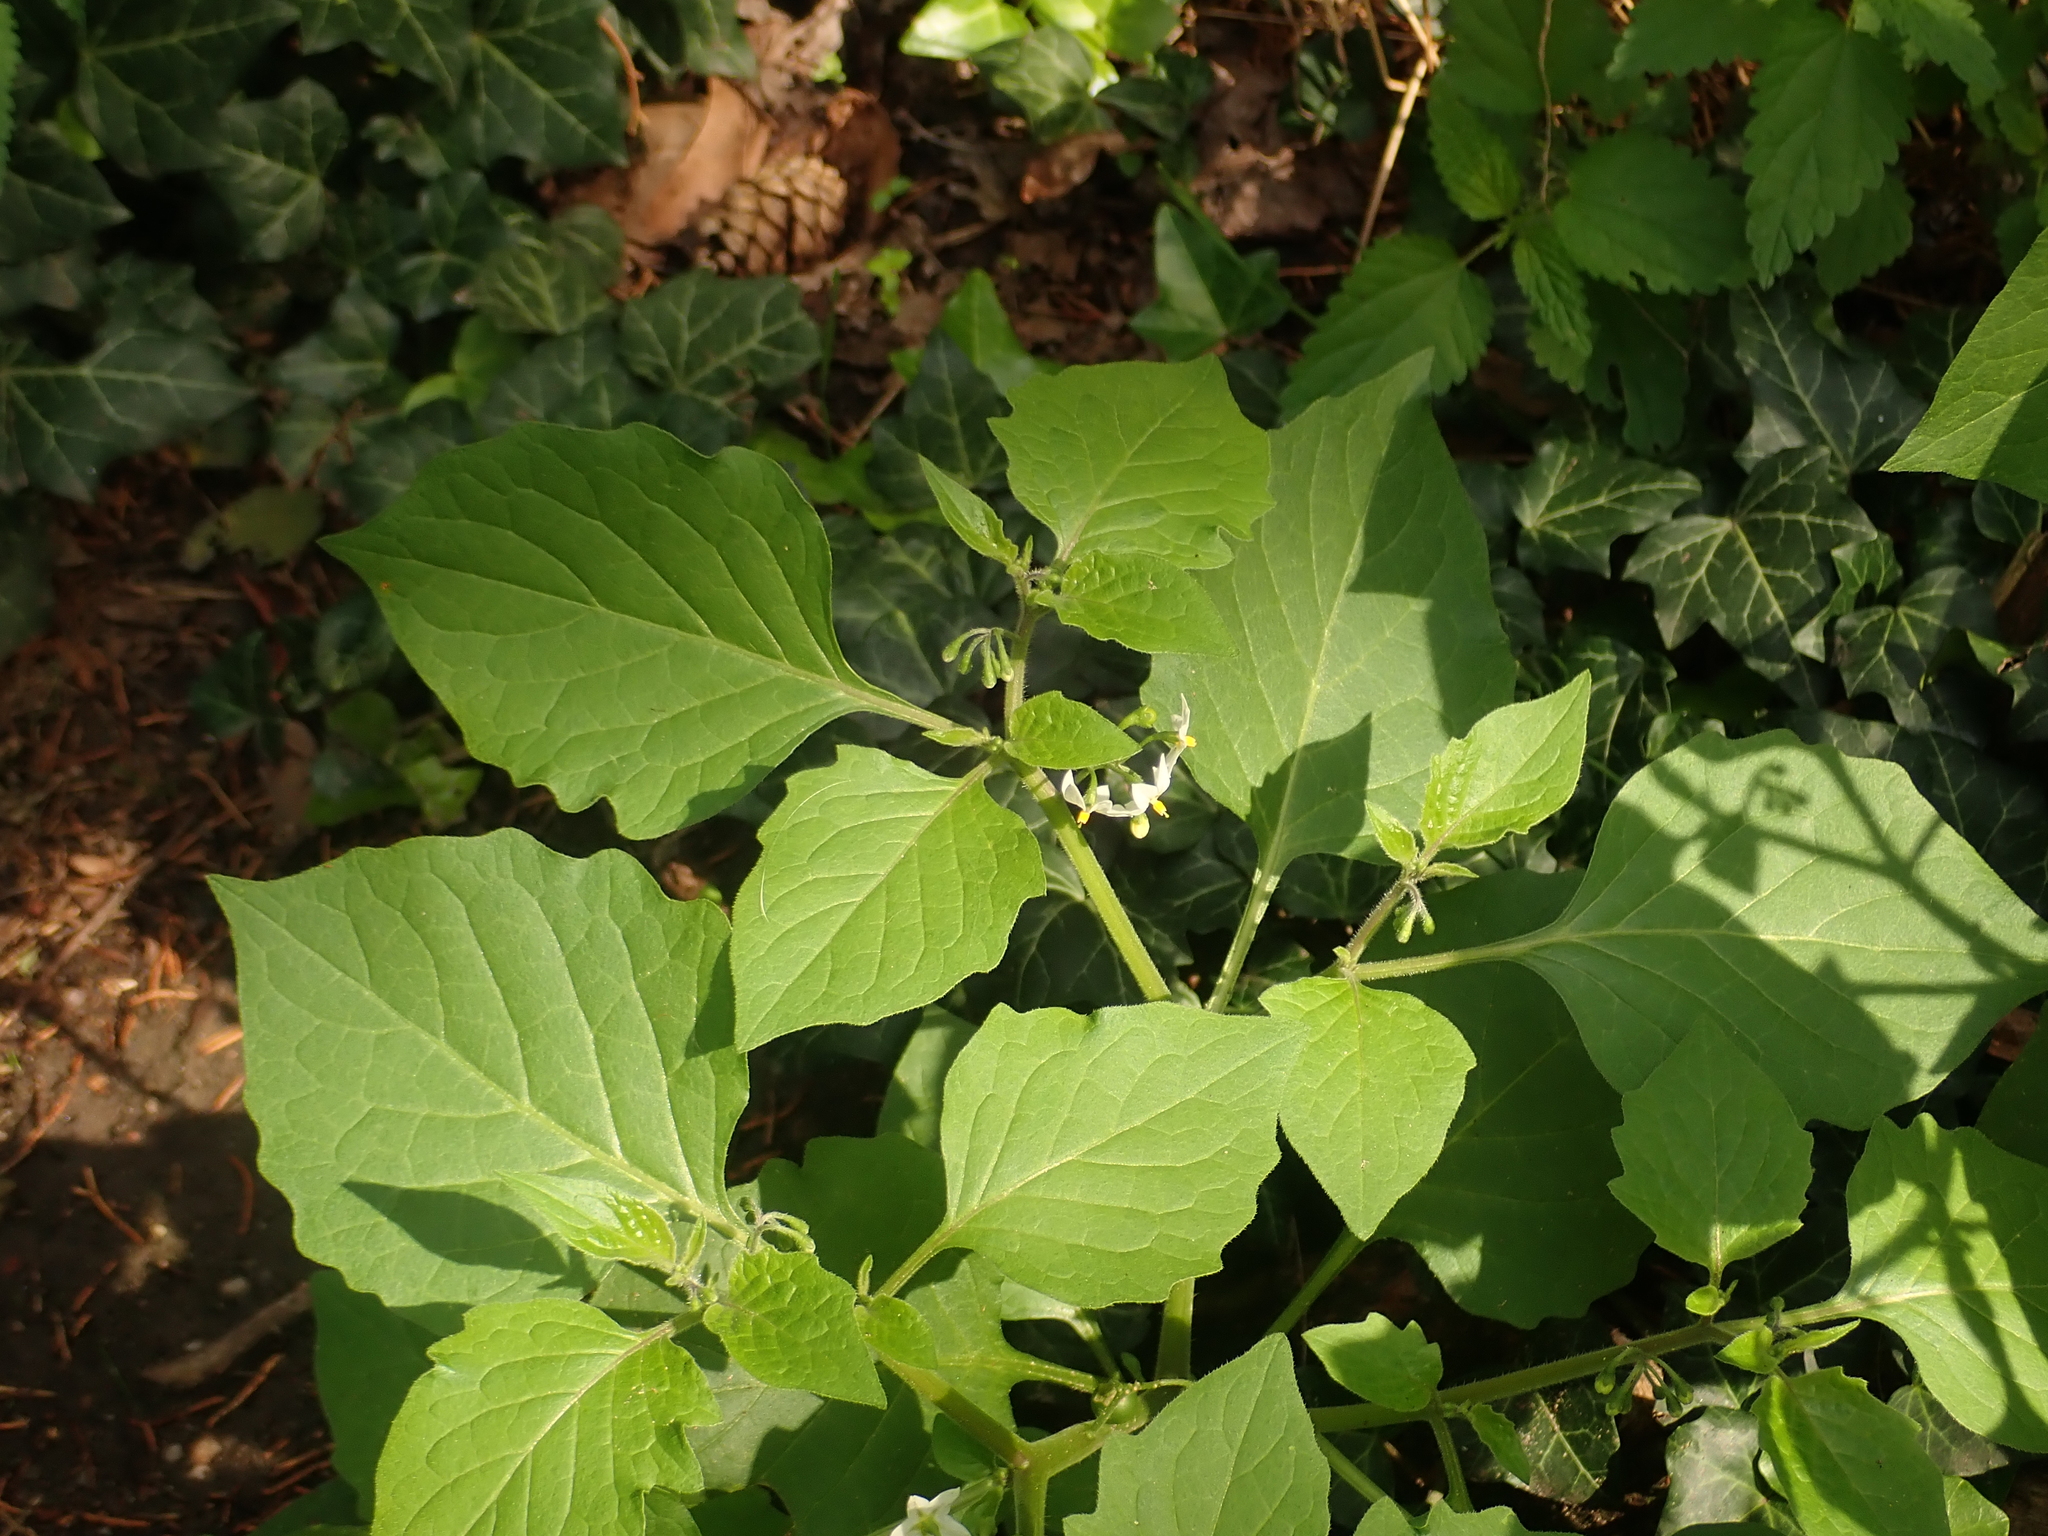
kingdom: Plantae
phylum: Tracheophyta
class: Magnoliopsida
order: Solanales
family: Solanaceae
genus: Solanum
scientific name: Solanum nigrum
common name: Black nightshade
